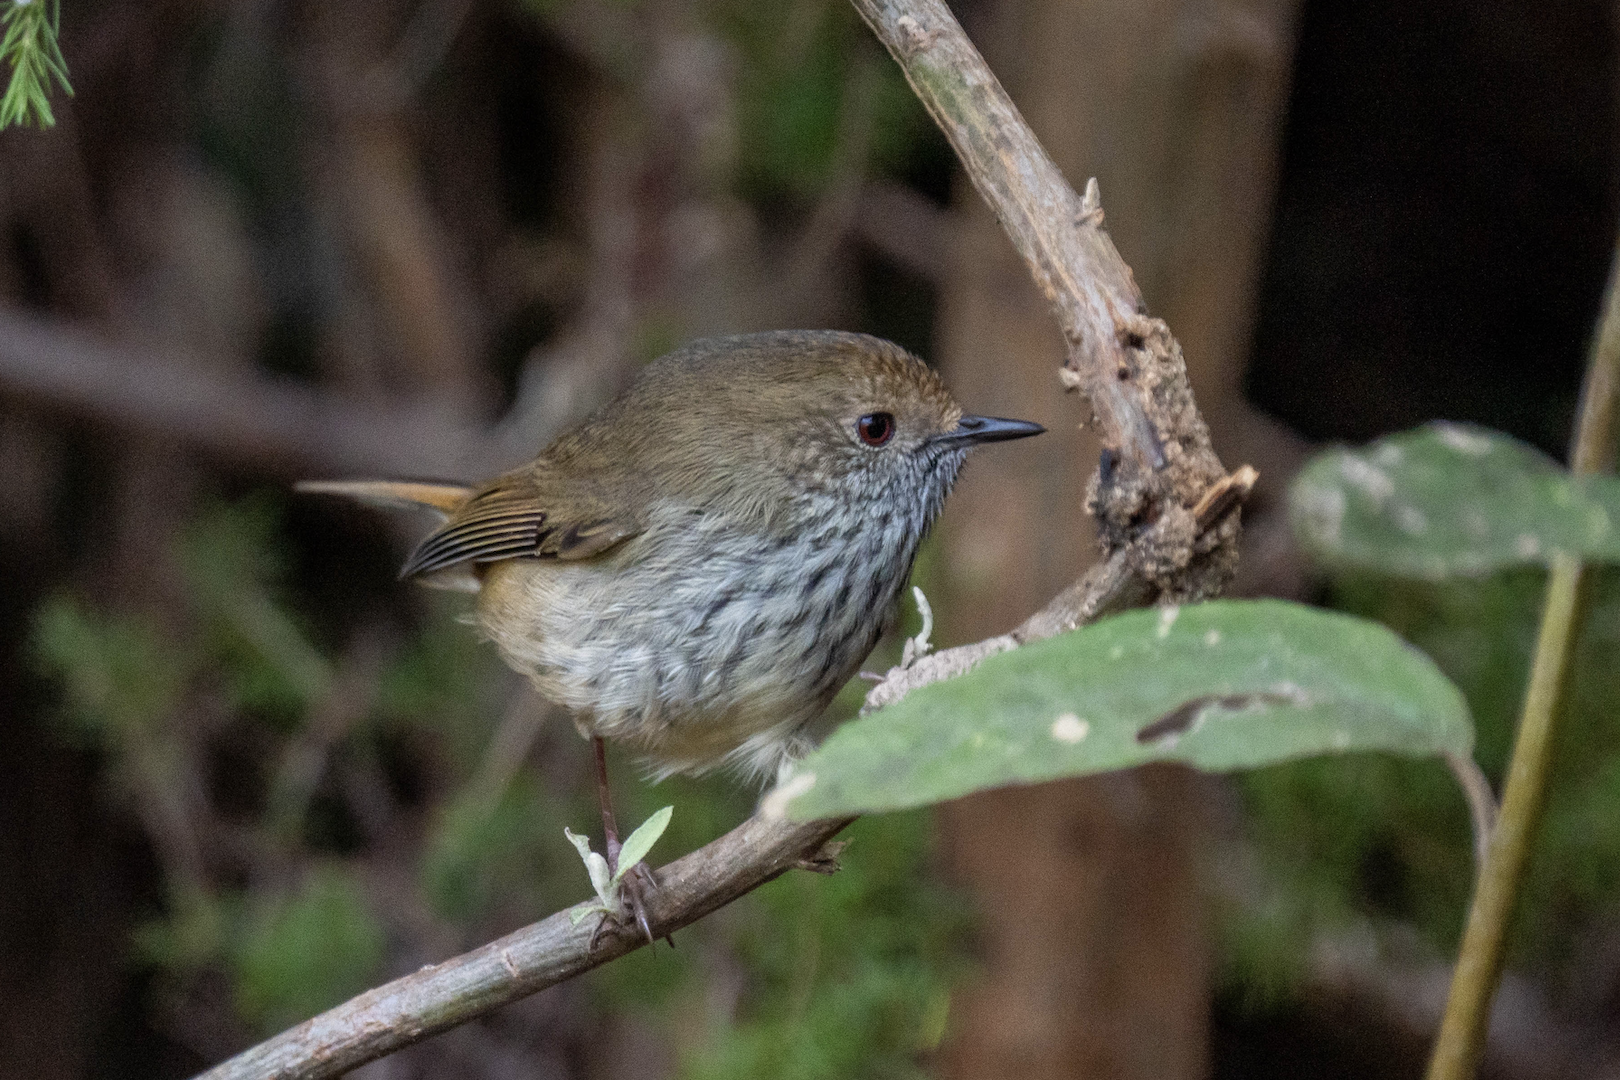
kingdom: Animalia
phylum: Chordata
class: Aves
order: Passeriformes
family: Acanthizidae
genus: Acanthiza
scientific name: Acanthiza pusilla
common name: Brown thornbill
